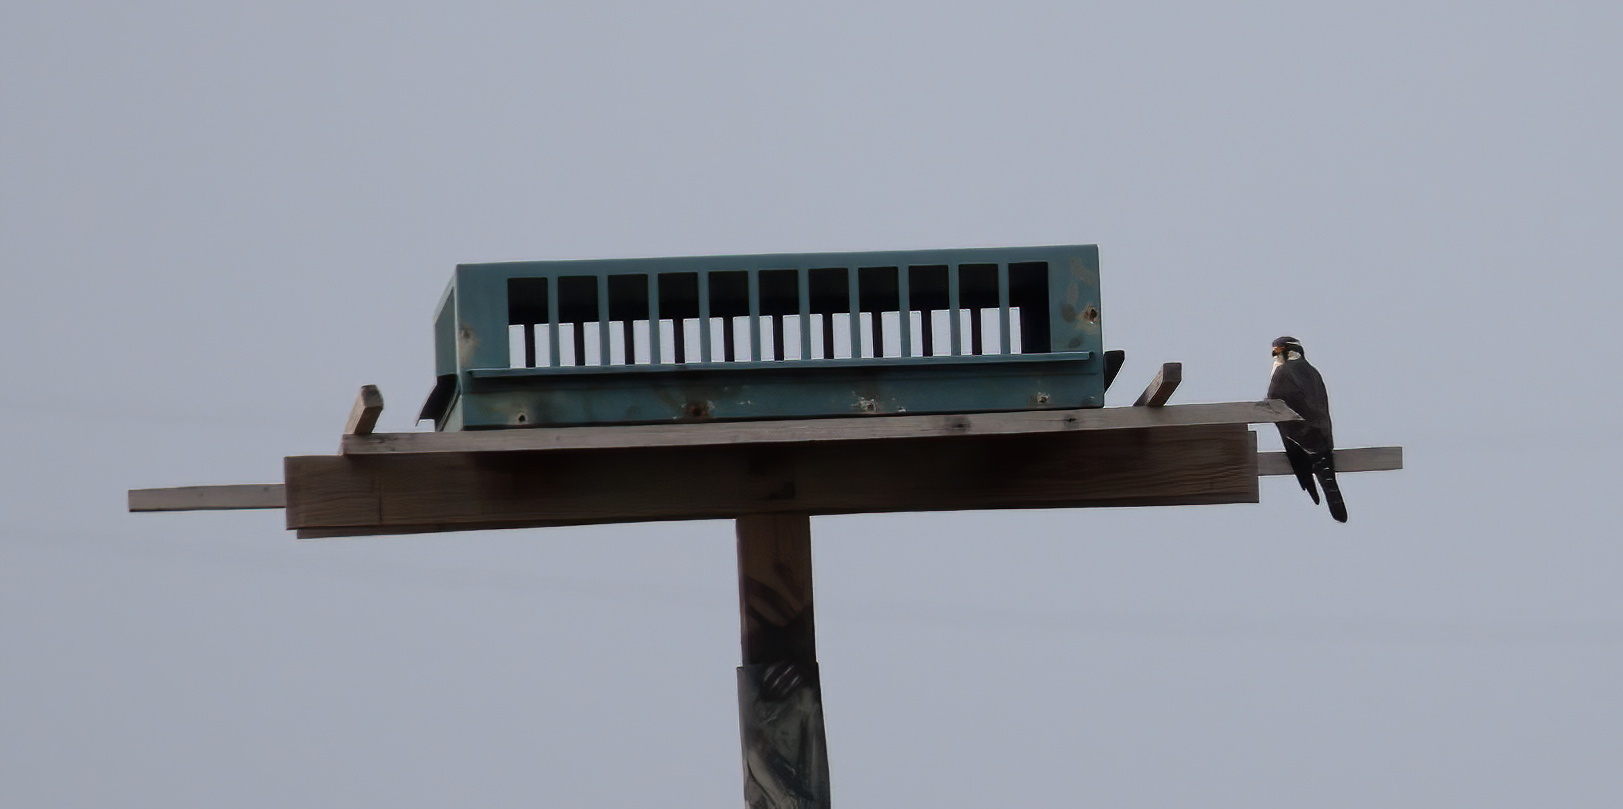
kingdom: Animalia
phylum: Chordata
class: Aves
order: Falconiformes
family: Falconidae
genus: Falco
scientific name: Falco femoralis
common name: Aplomado falcon
